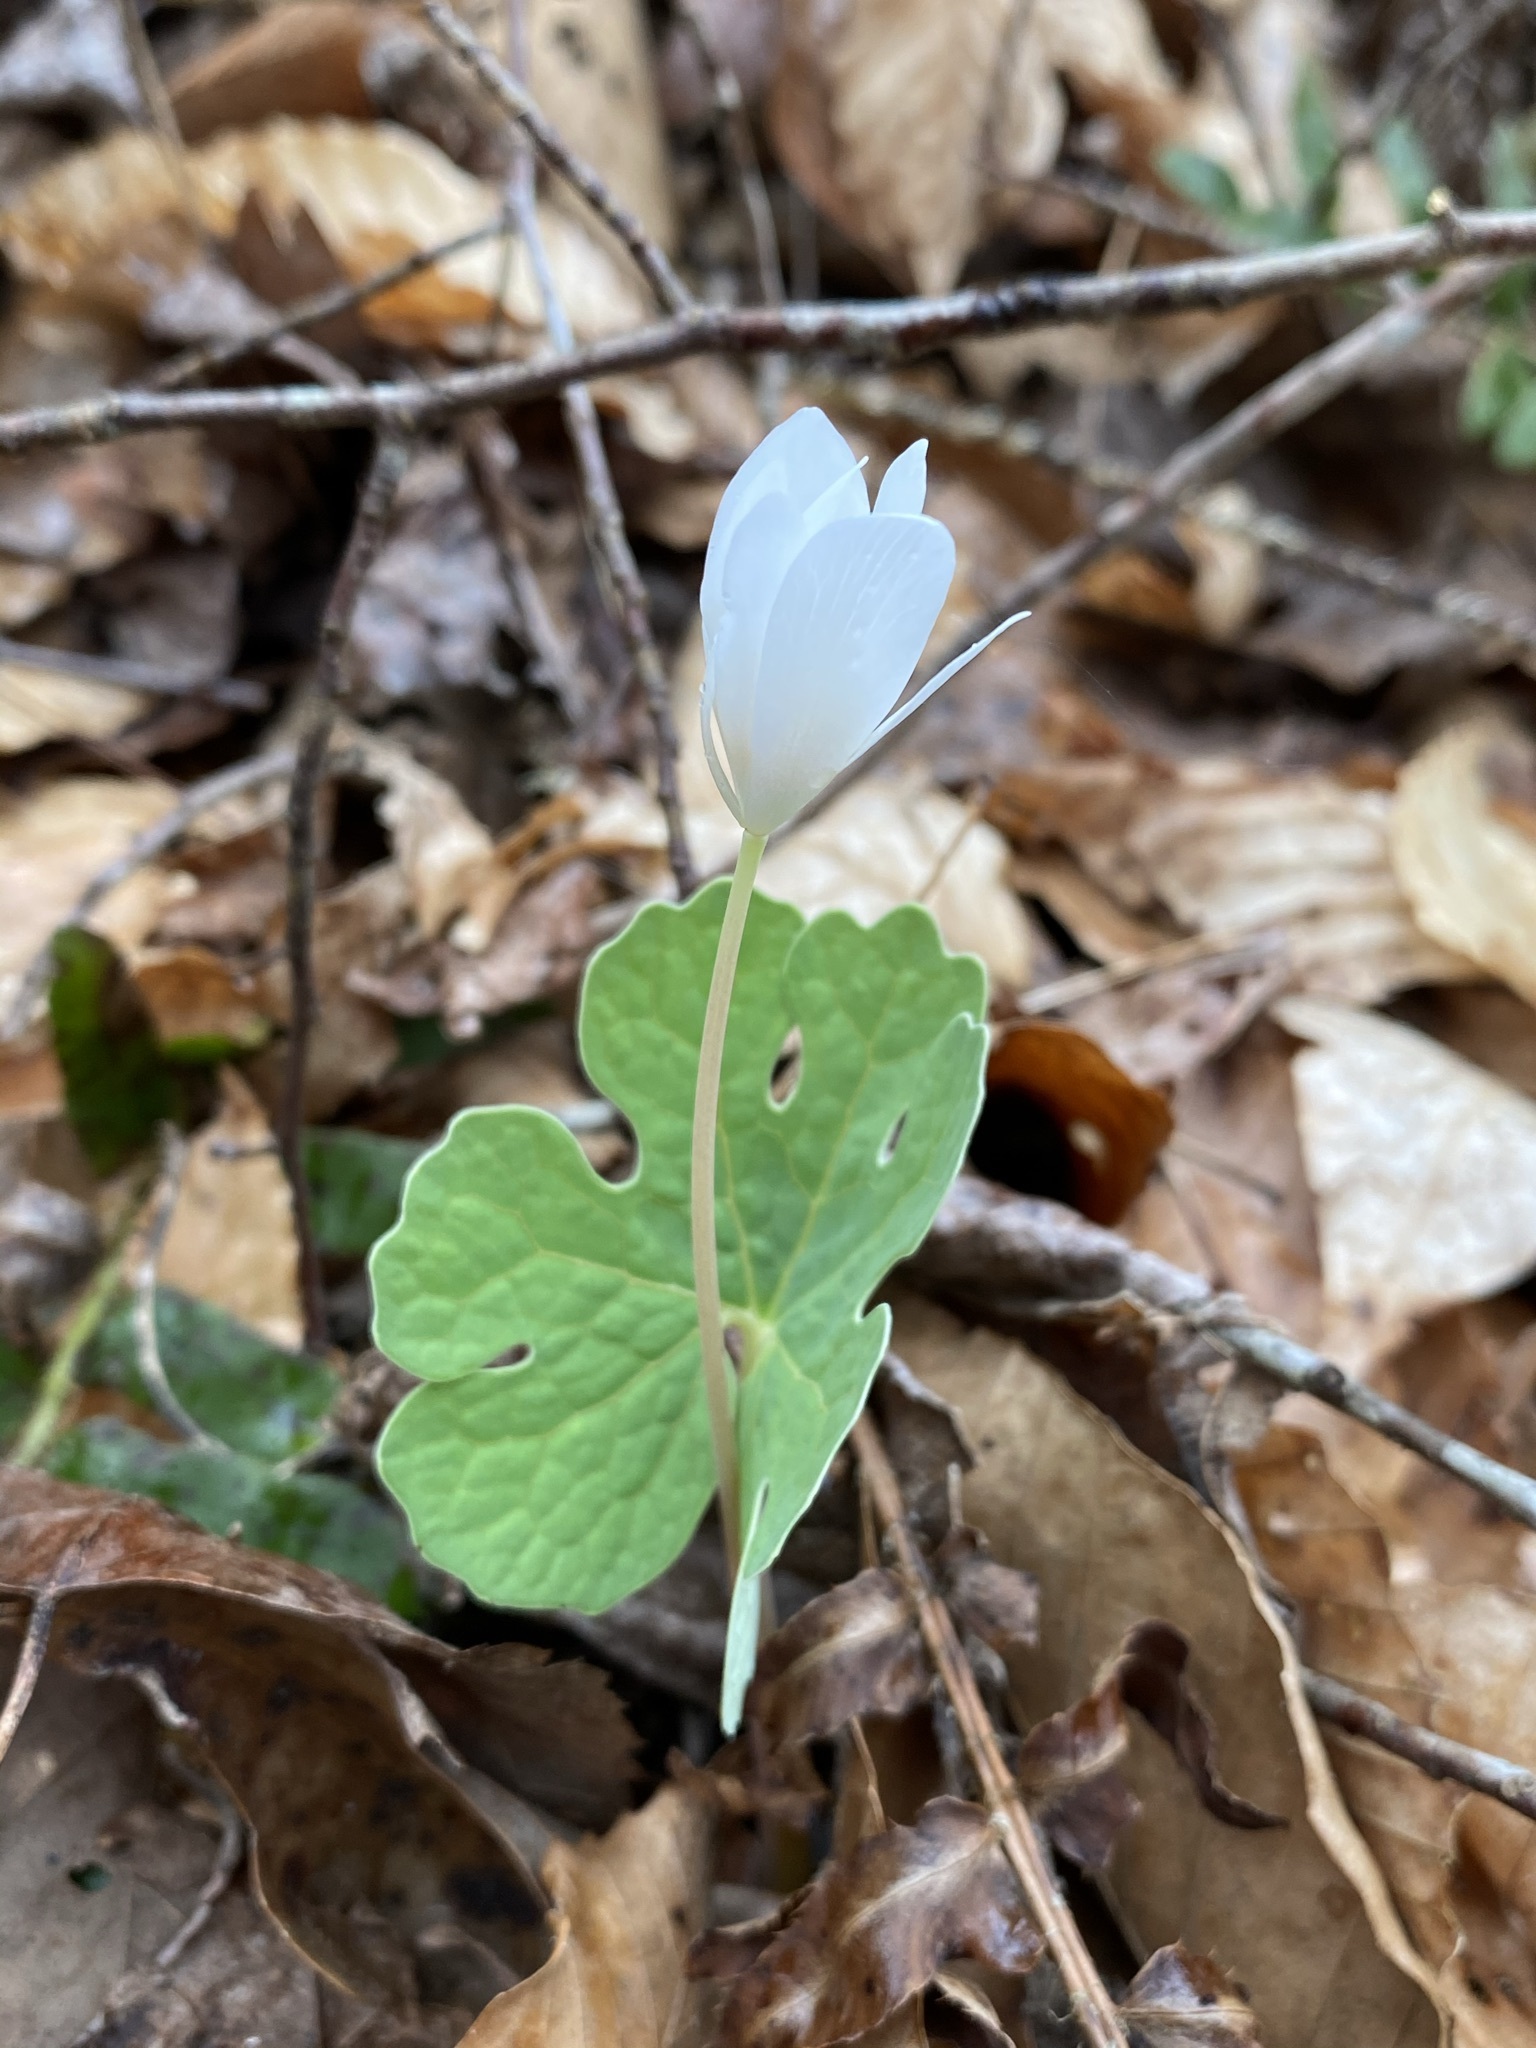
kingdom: Plantae
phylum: Tracheophyta
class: Magnoliopsida
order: Ranunculales
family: Papaveraceae
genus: Sanguinaria
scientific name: Sanguinaria canadensis
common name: Bloodroot
